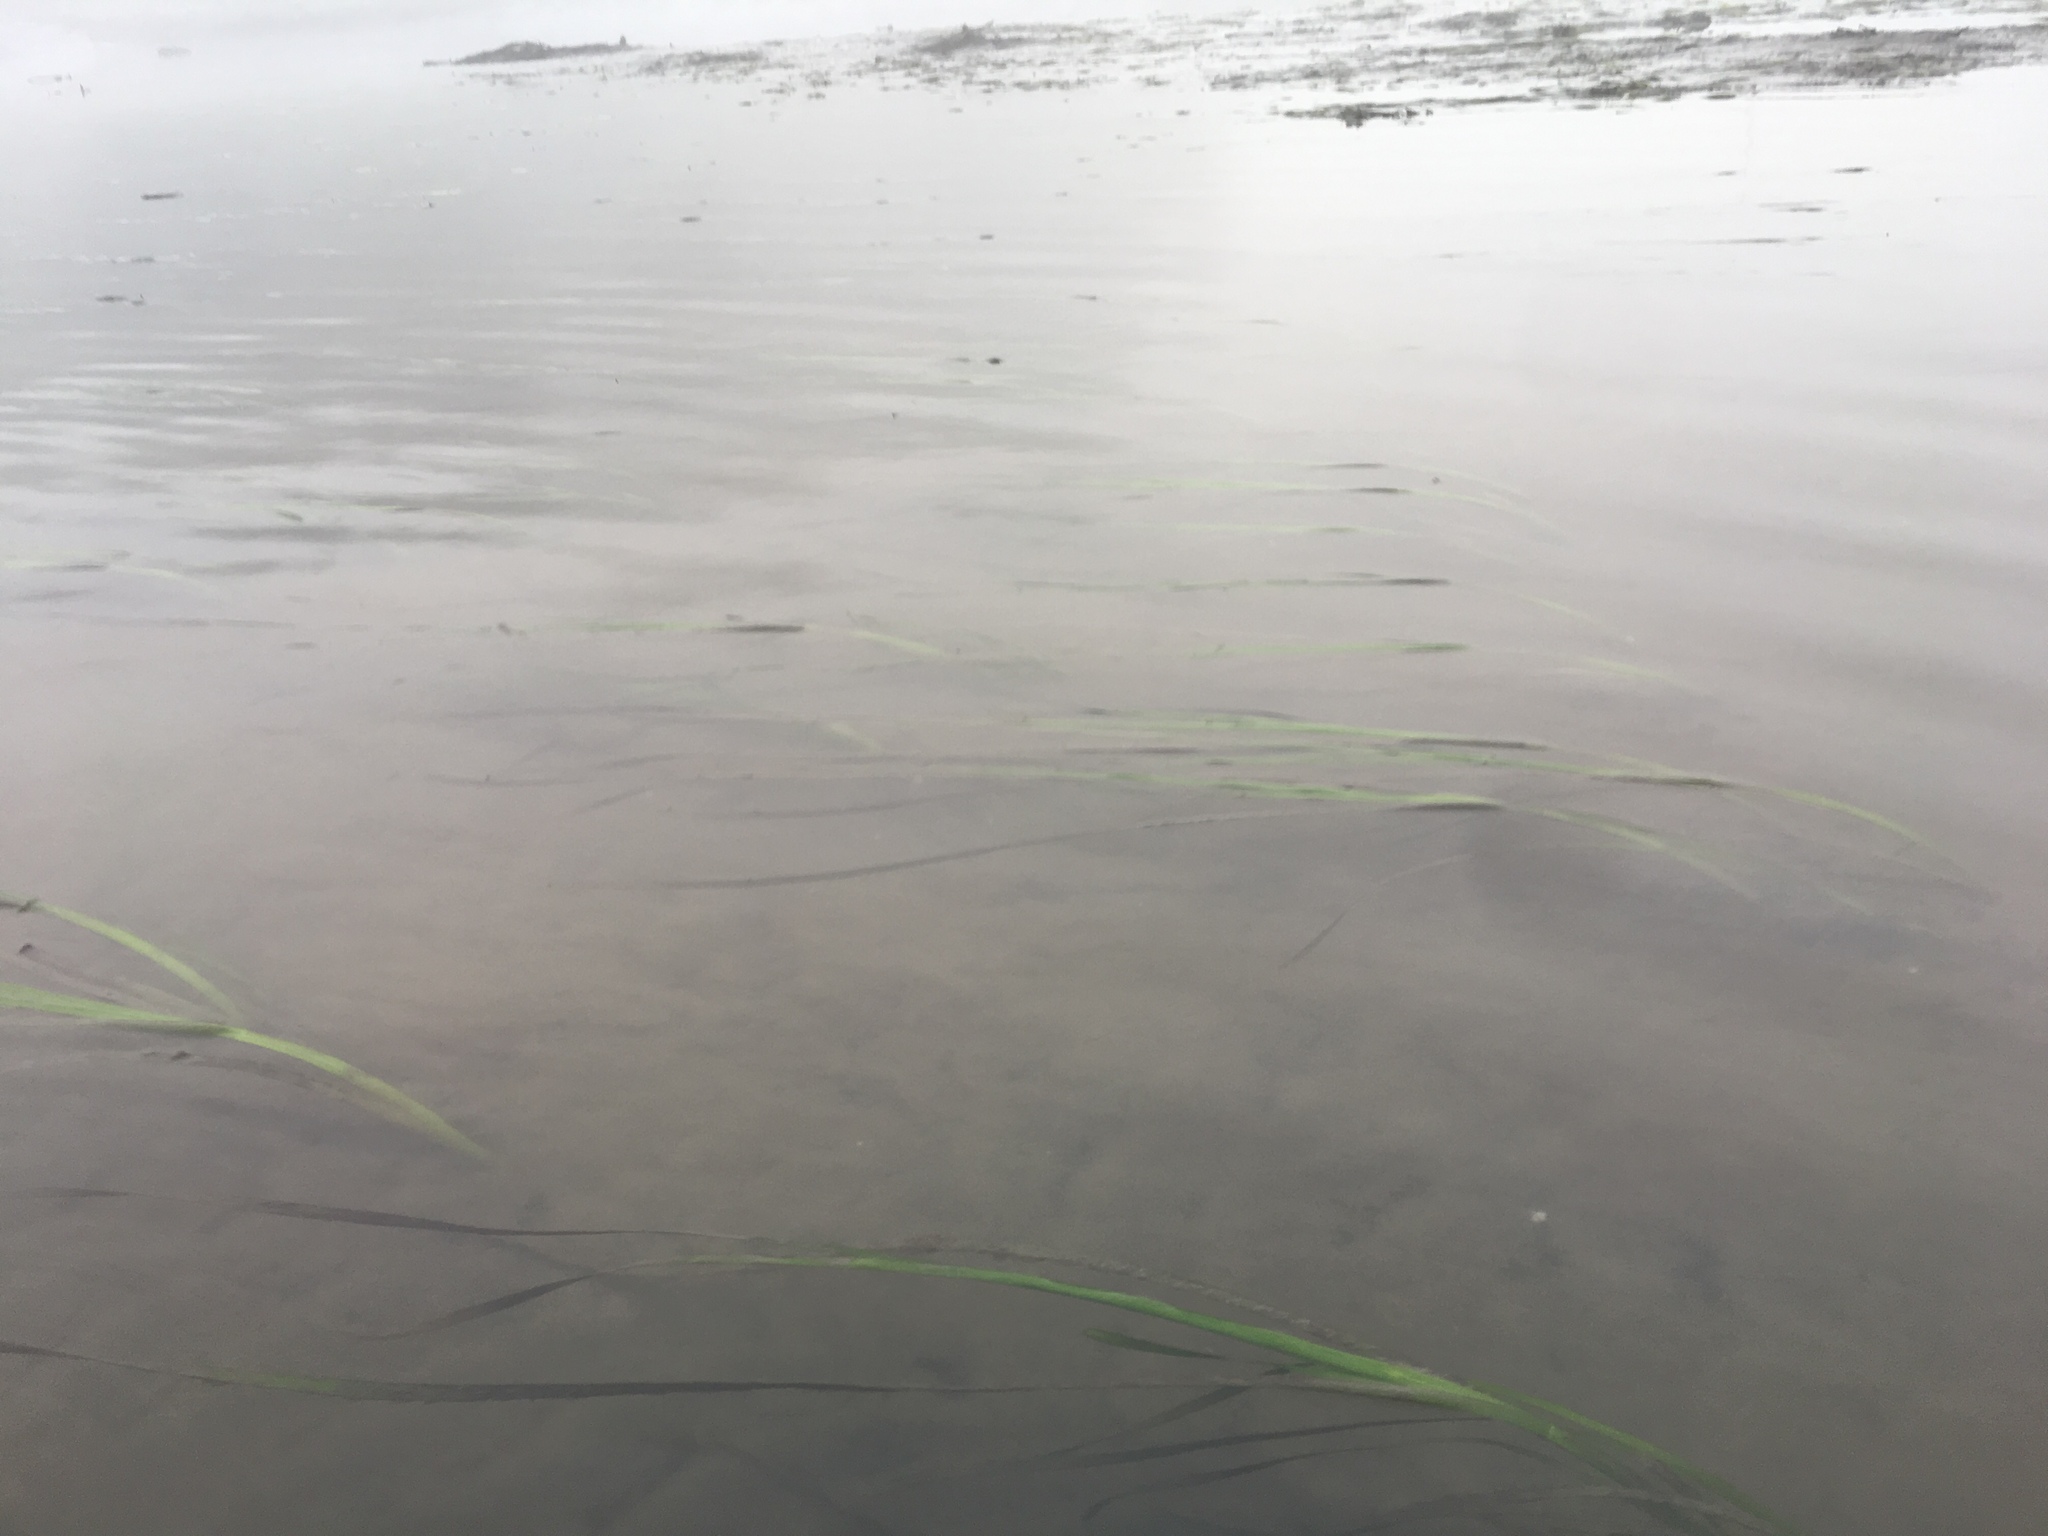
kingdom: Plantae
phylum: Tracheophyta
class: Liliopsida
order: Alismatales
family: Zosteraceae
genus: Zostera
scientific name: Zostera marina
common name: Eelgrass
